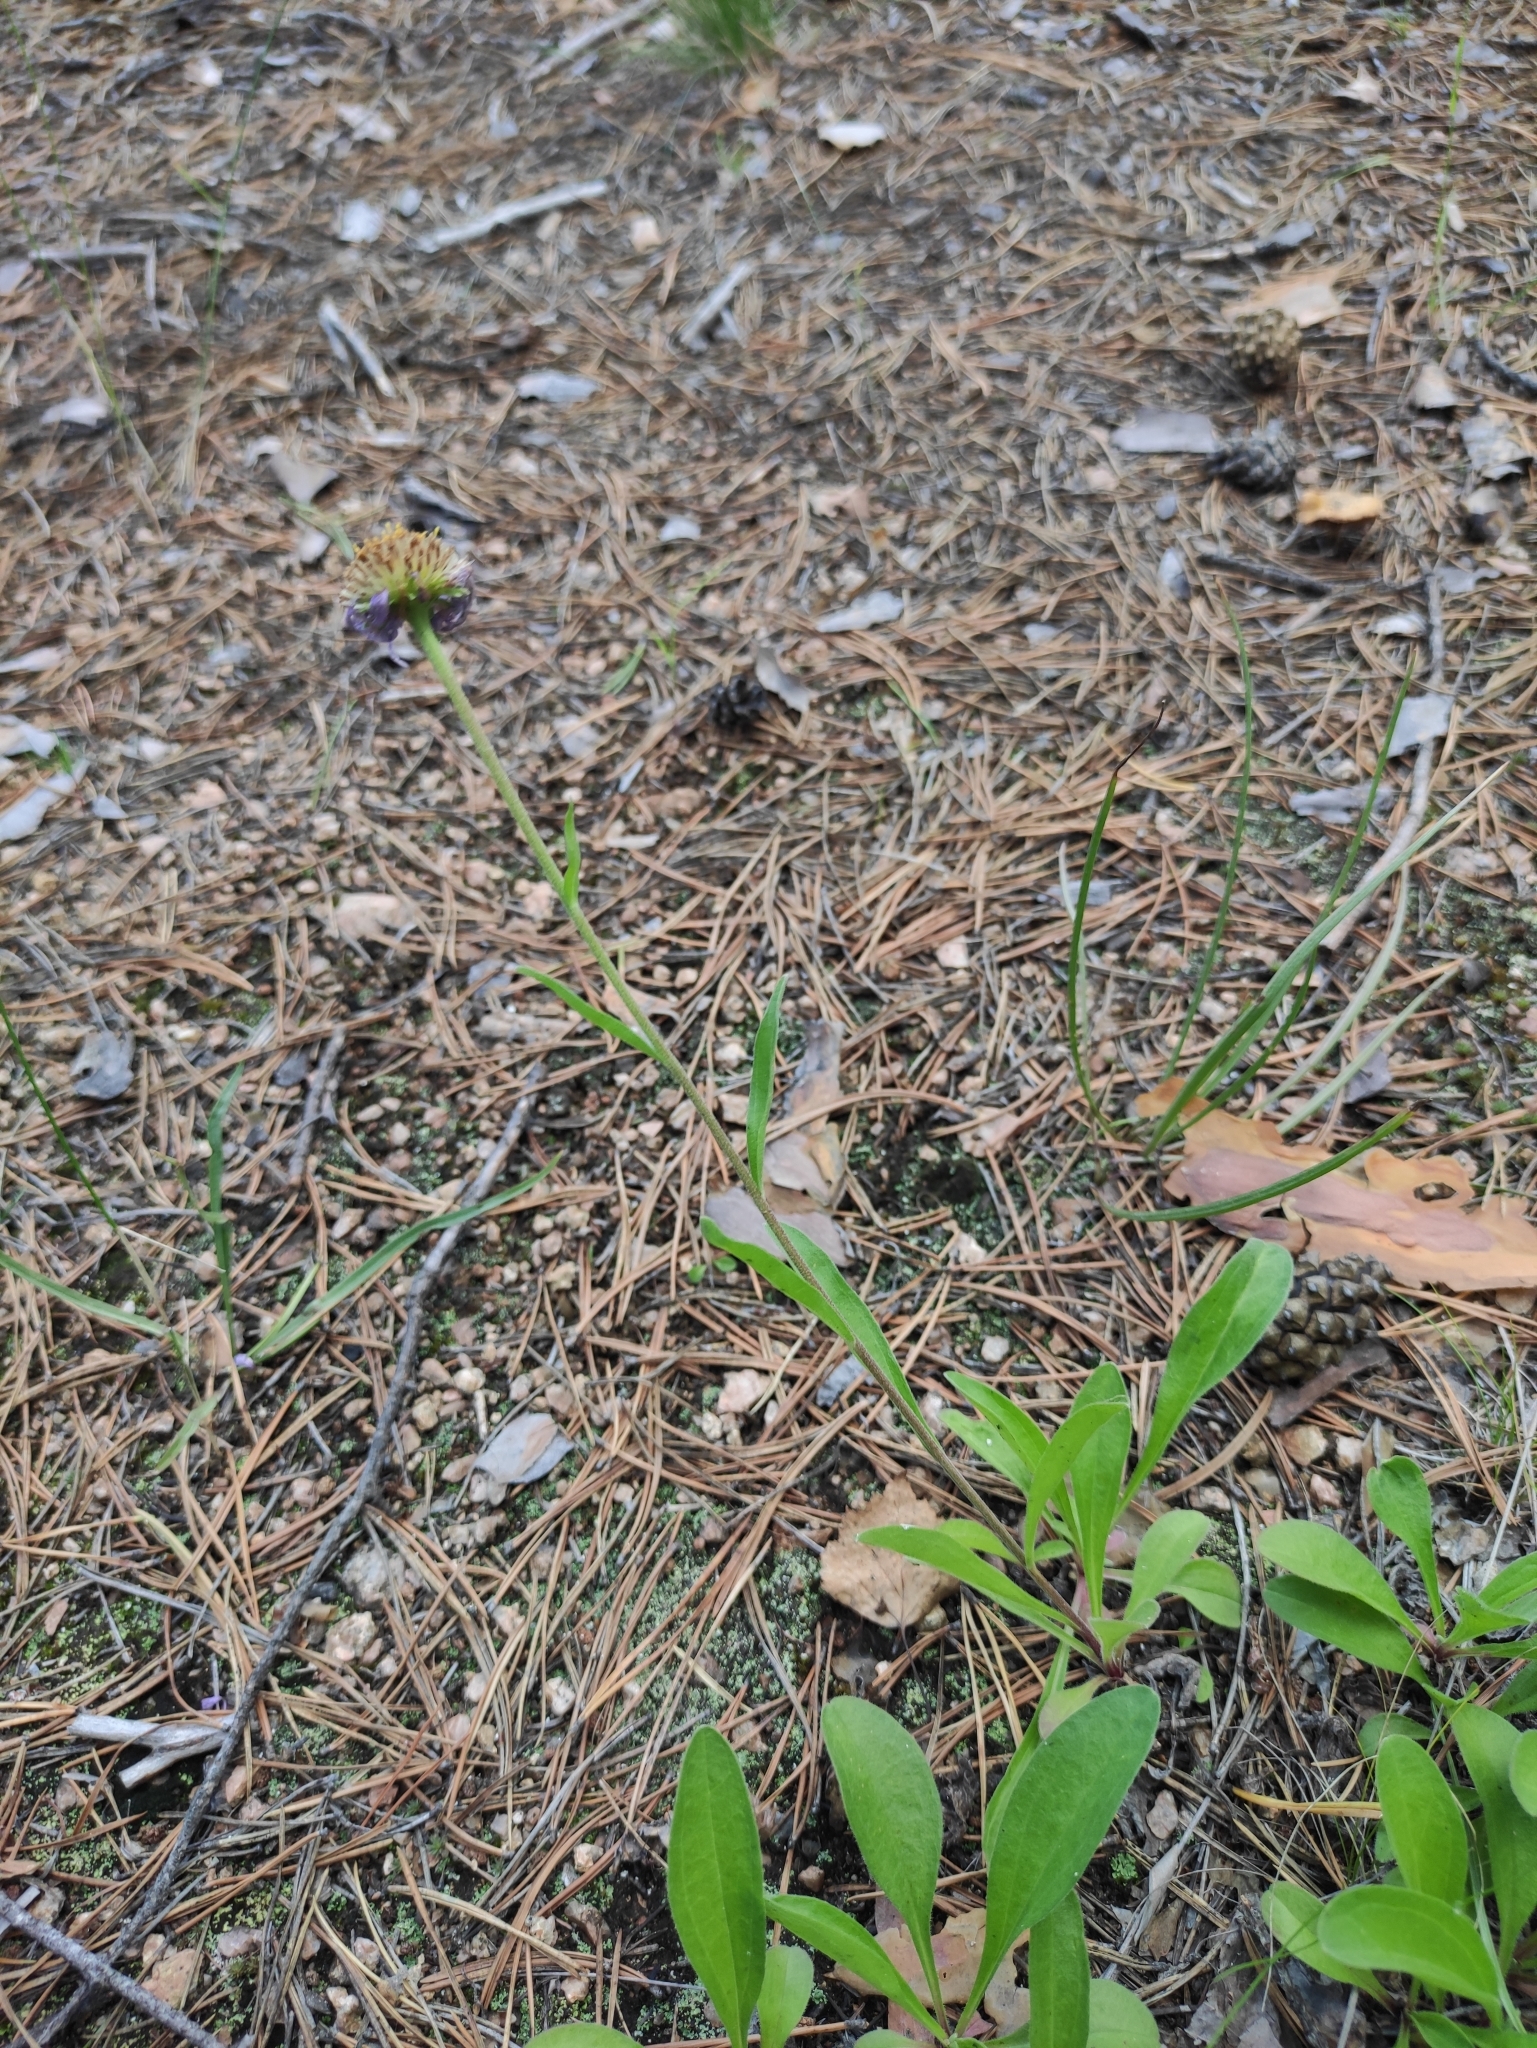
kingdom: Plantae
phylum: Tracheophyta
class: Magnoliopsida
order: Asterales
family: Asteraceae
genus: Aster
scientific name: Aster alpinus
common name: Alpine aster
